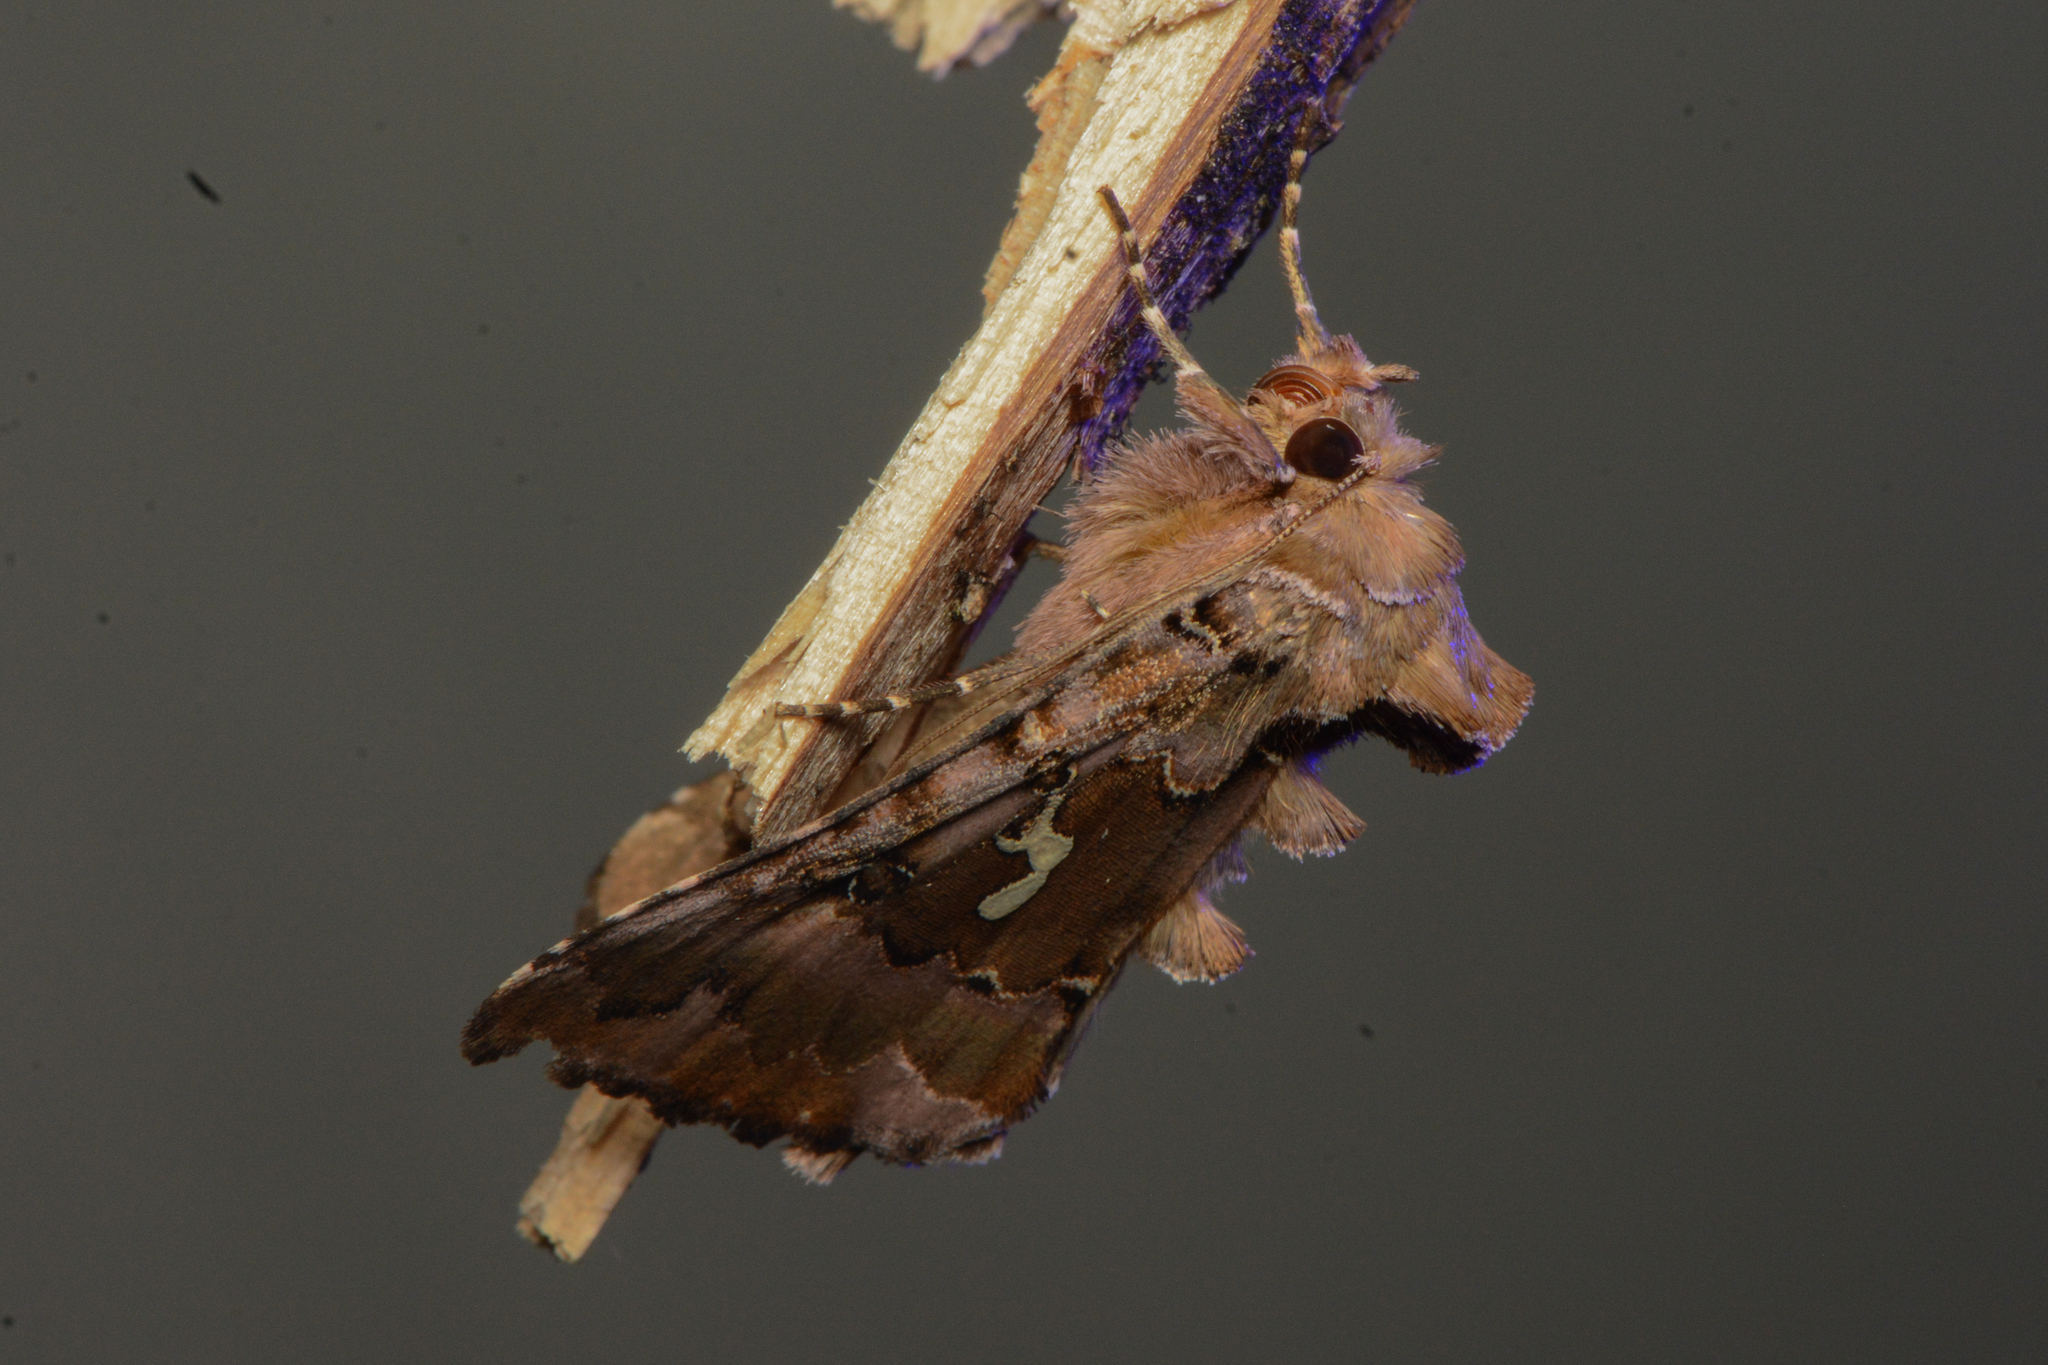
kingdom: Animalia
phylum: Arthropoda
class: Insecta
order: Lepidoptera
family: Noctuidae
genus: Autographa
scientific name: Autographa corusca
